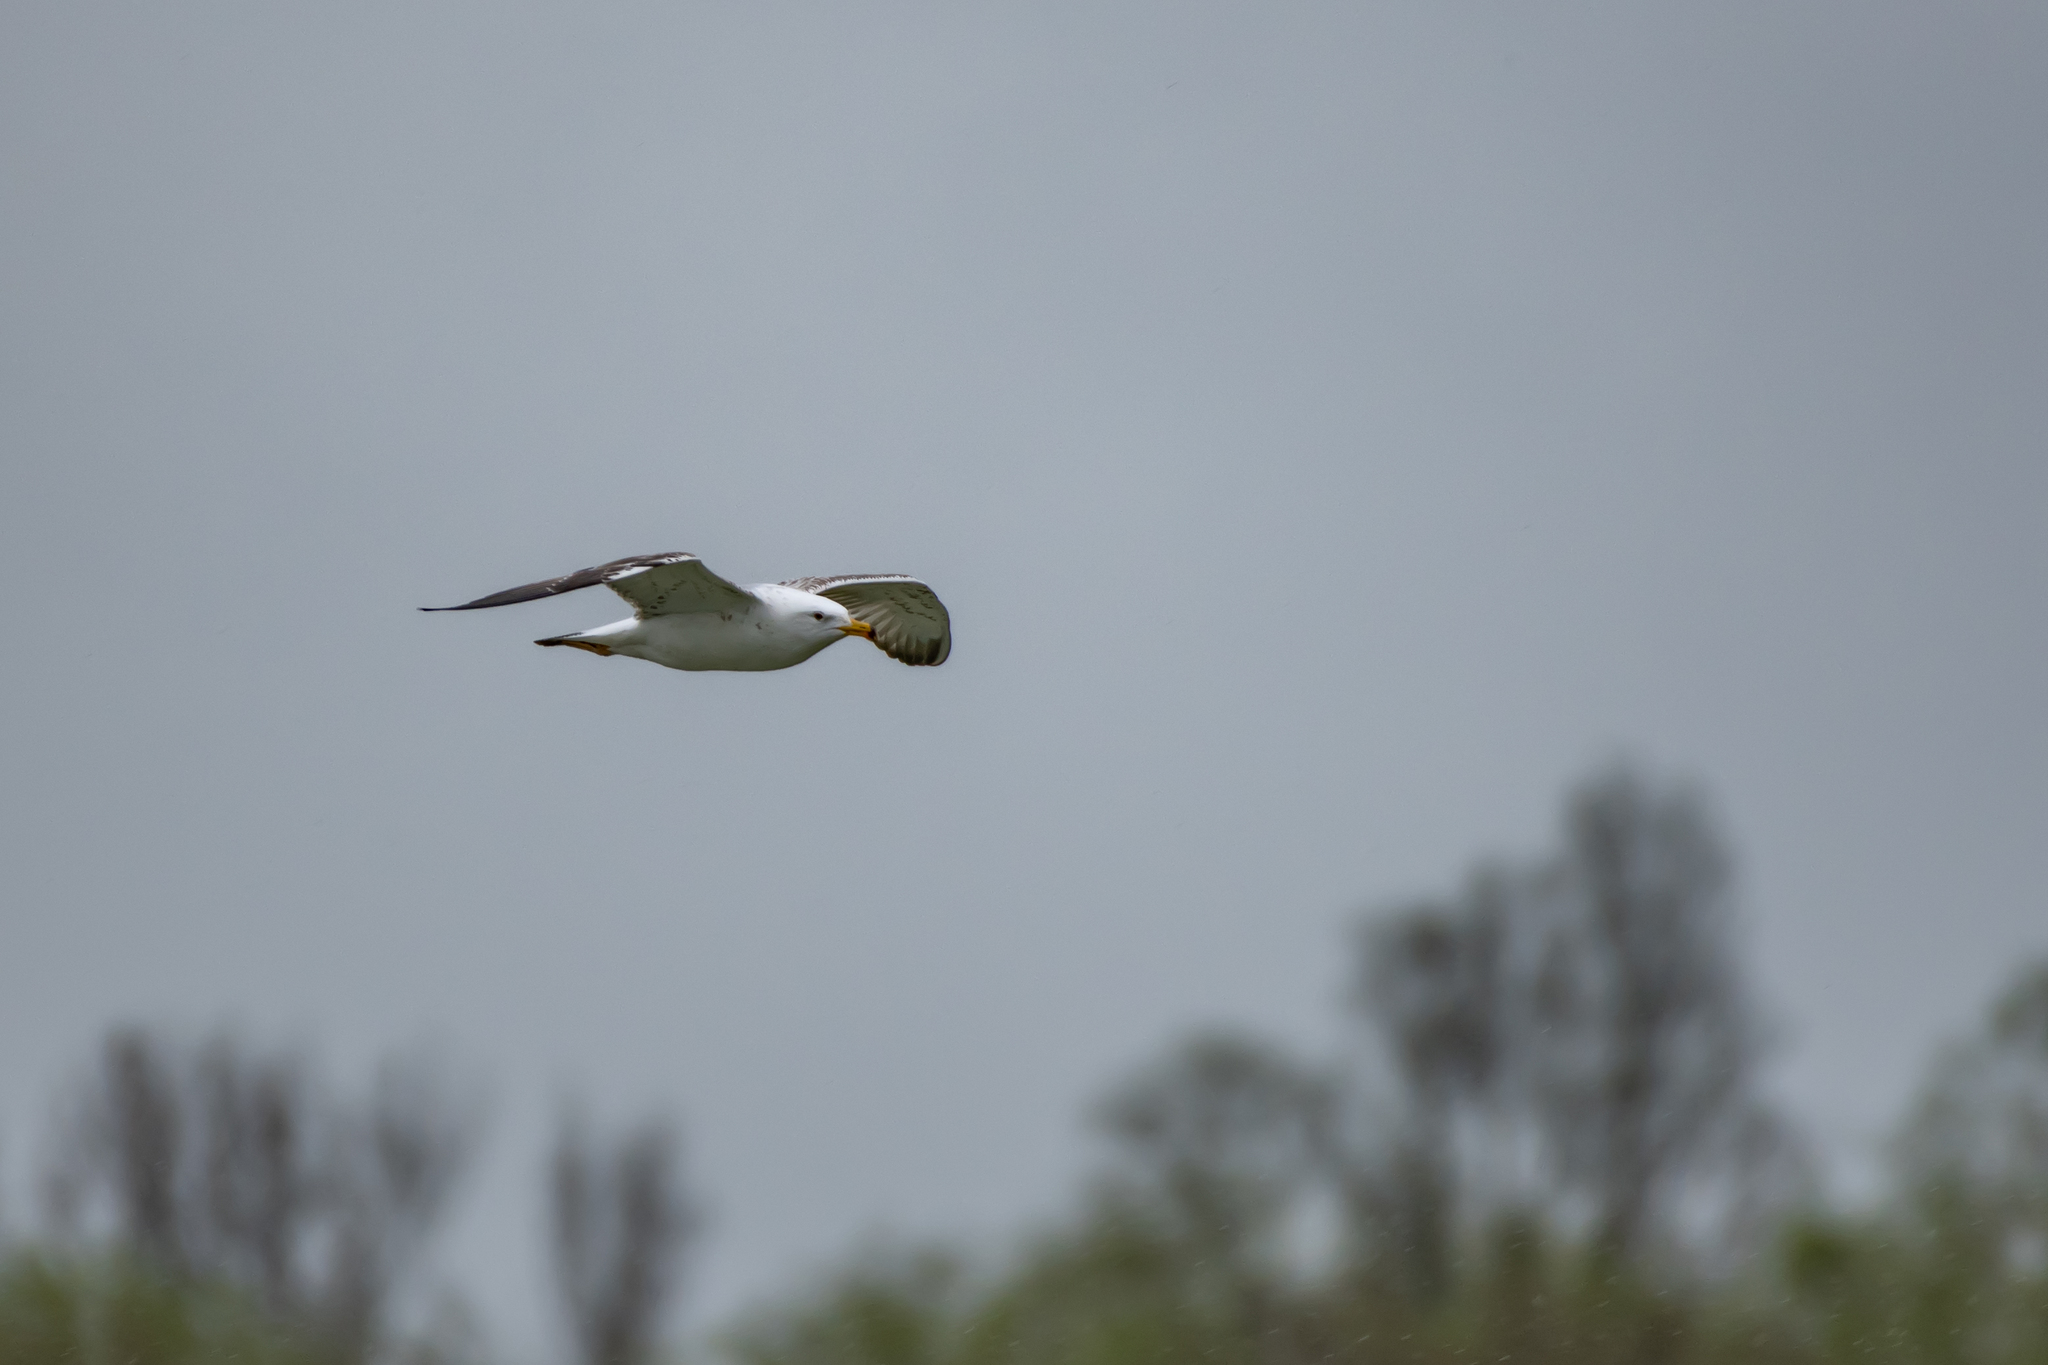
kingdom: Animalia
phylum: Chordata
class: Aves
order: Charadriiformes
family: Laridae
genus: Larus
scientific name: Larus cachinnans
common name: Caspian gull
